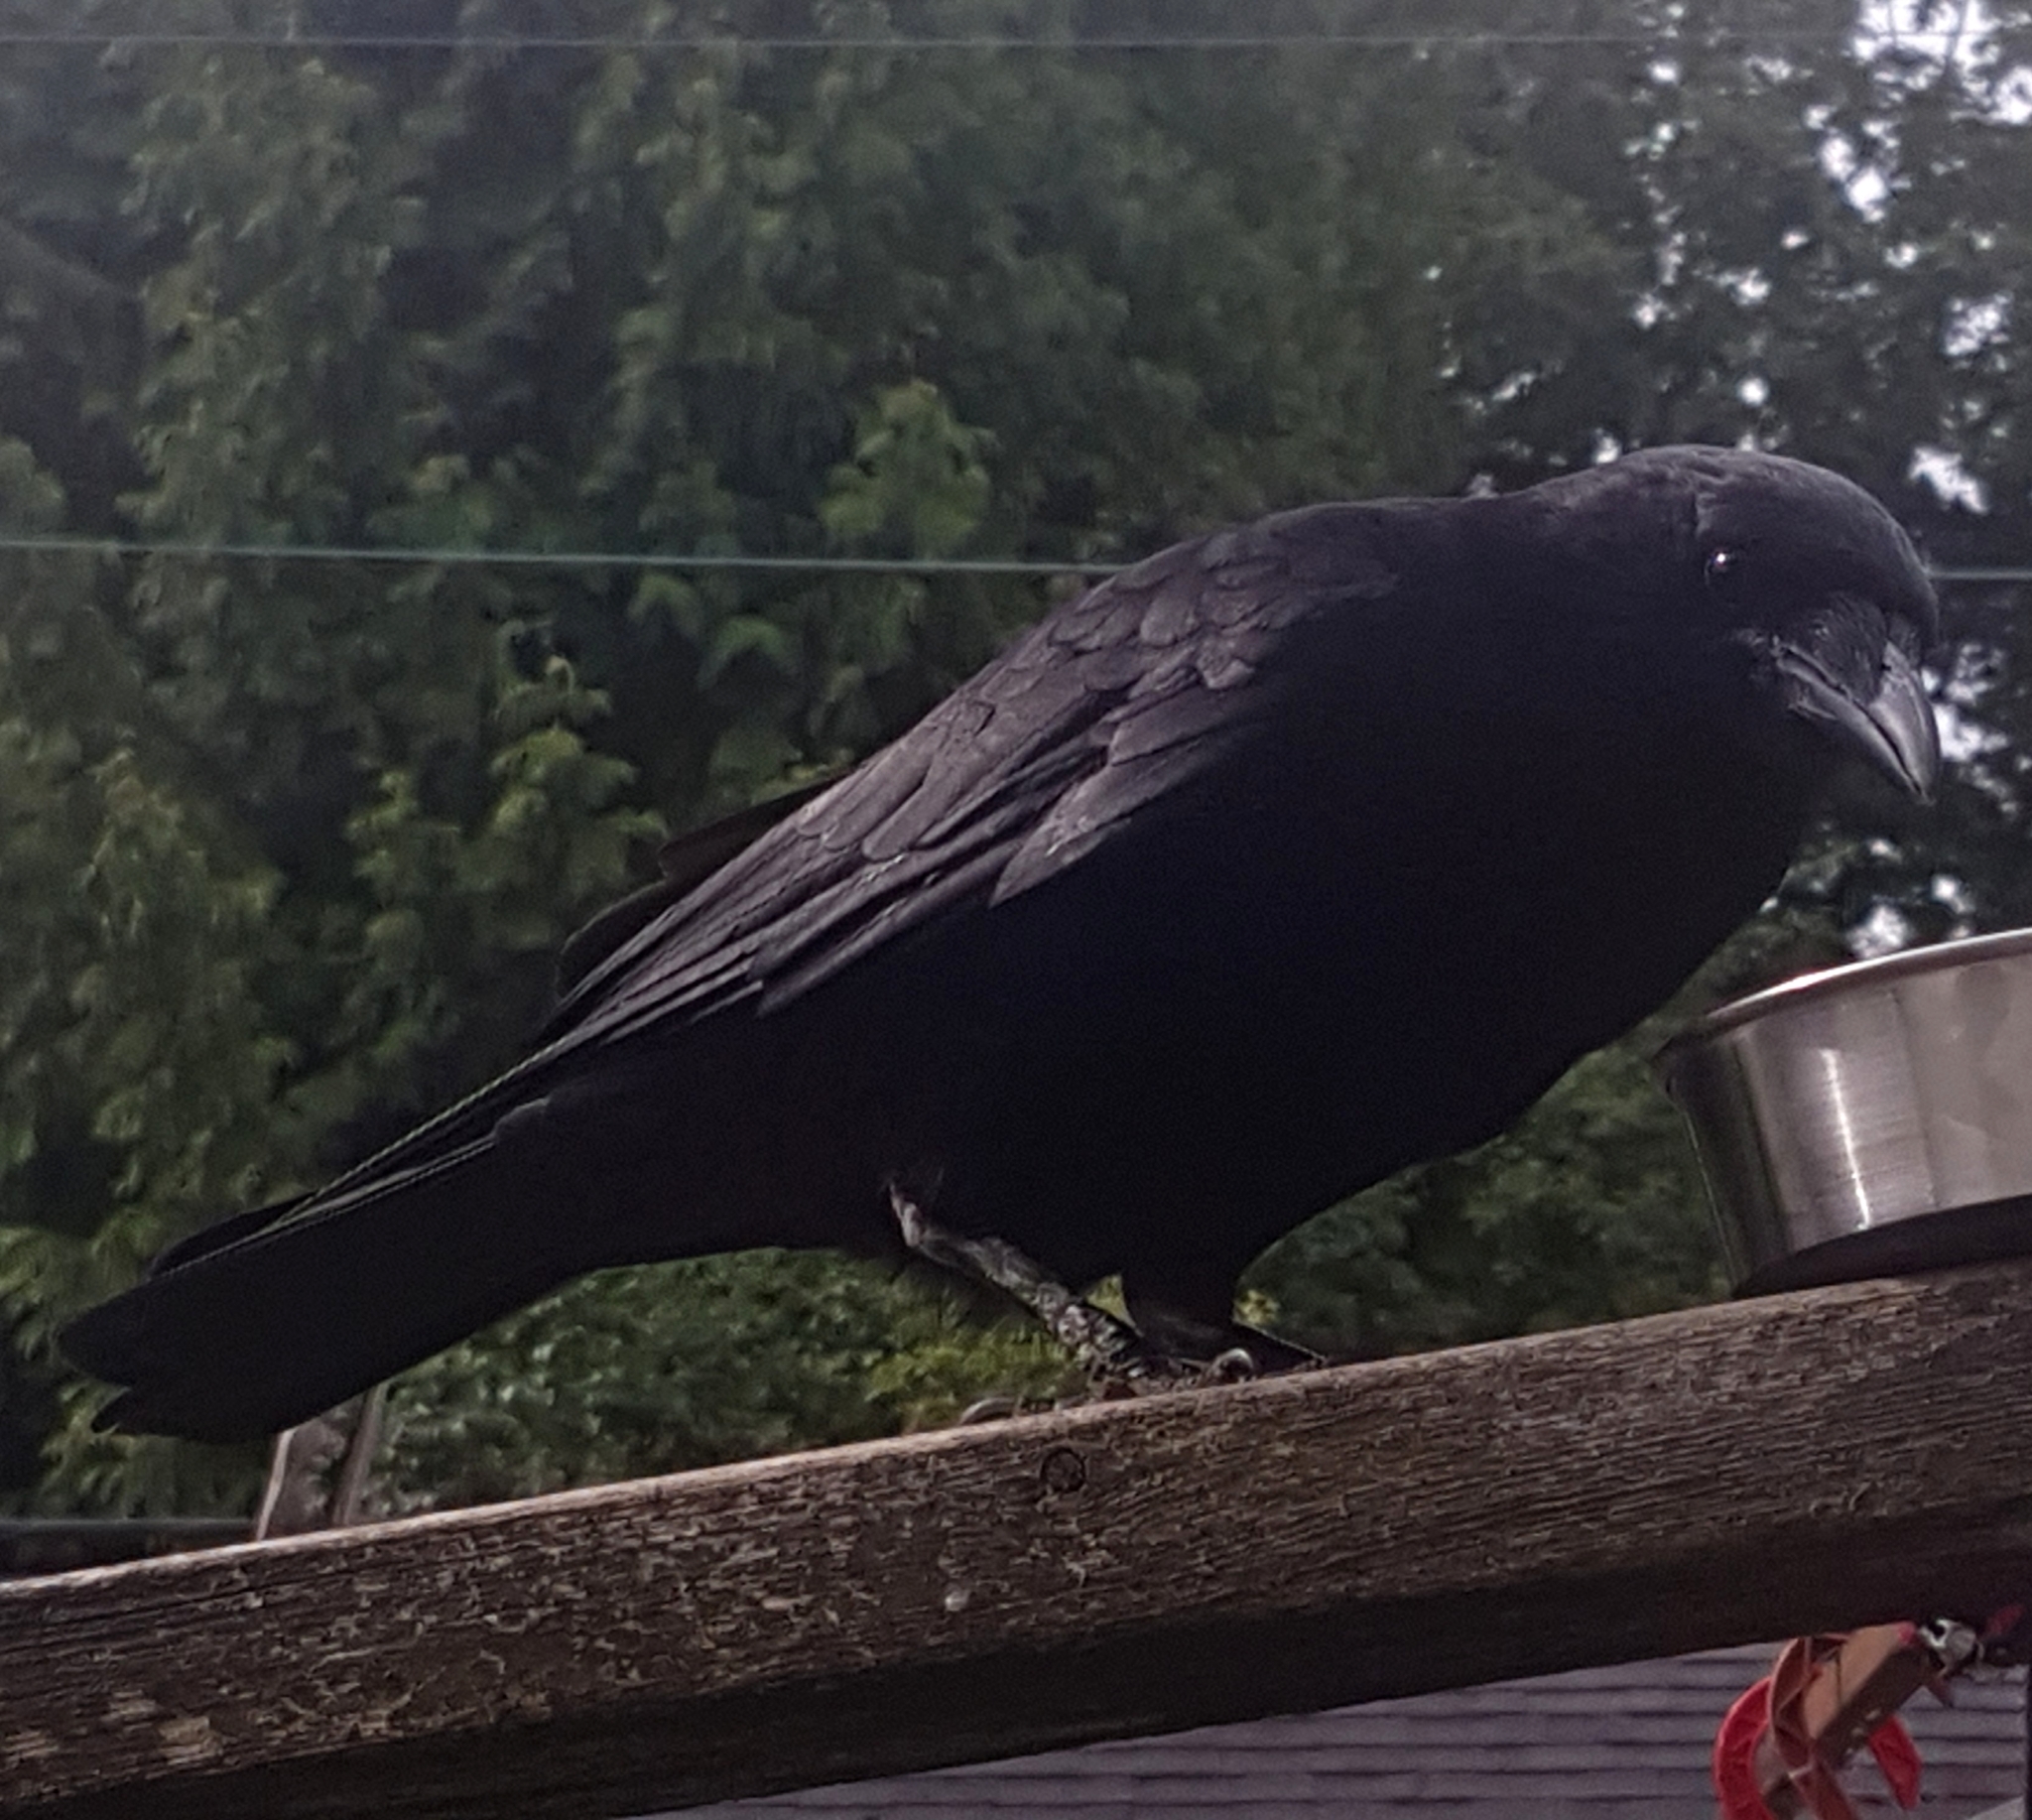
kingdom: Animalia
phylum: Chordata
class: Aves
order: Passeriformes
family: Corvidae
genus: Corvus
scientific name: Corvus brachyrhynchos
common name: American crow
